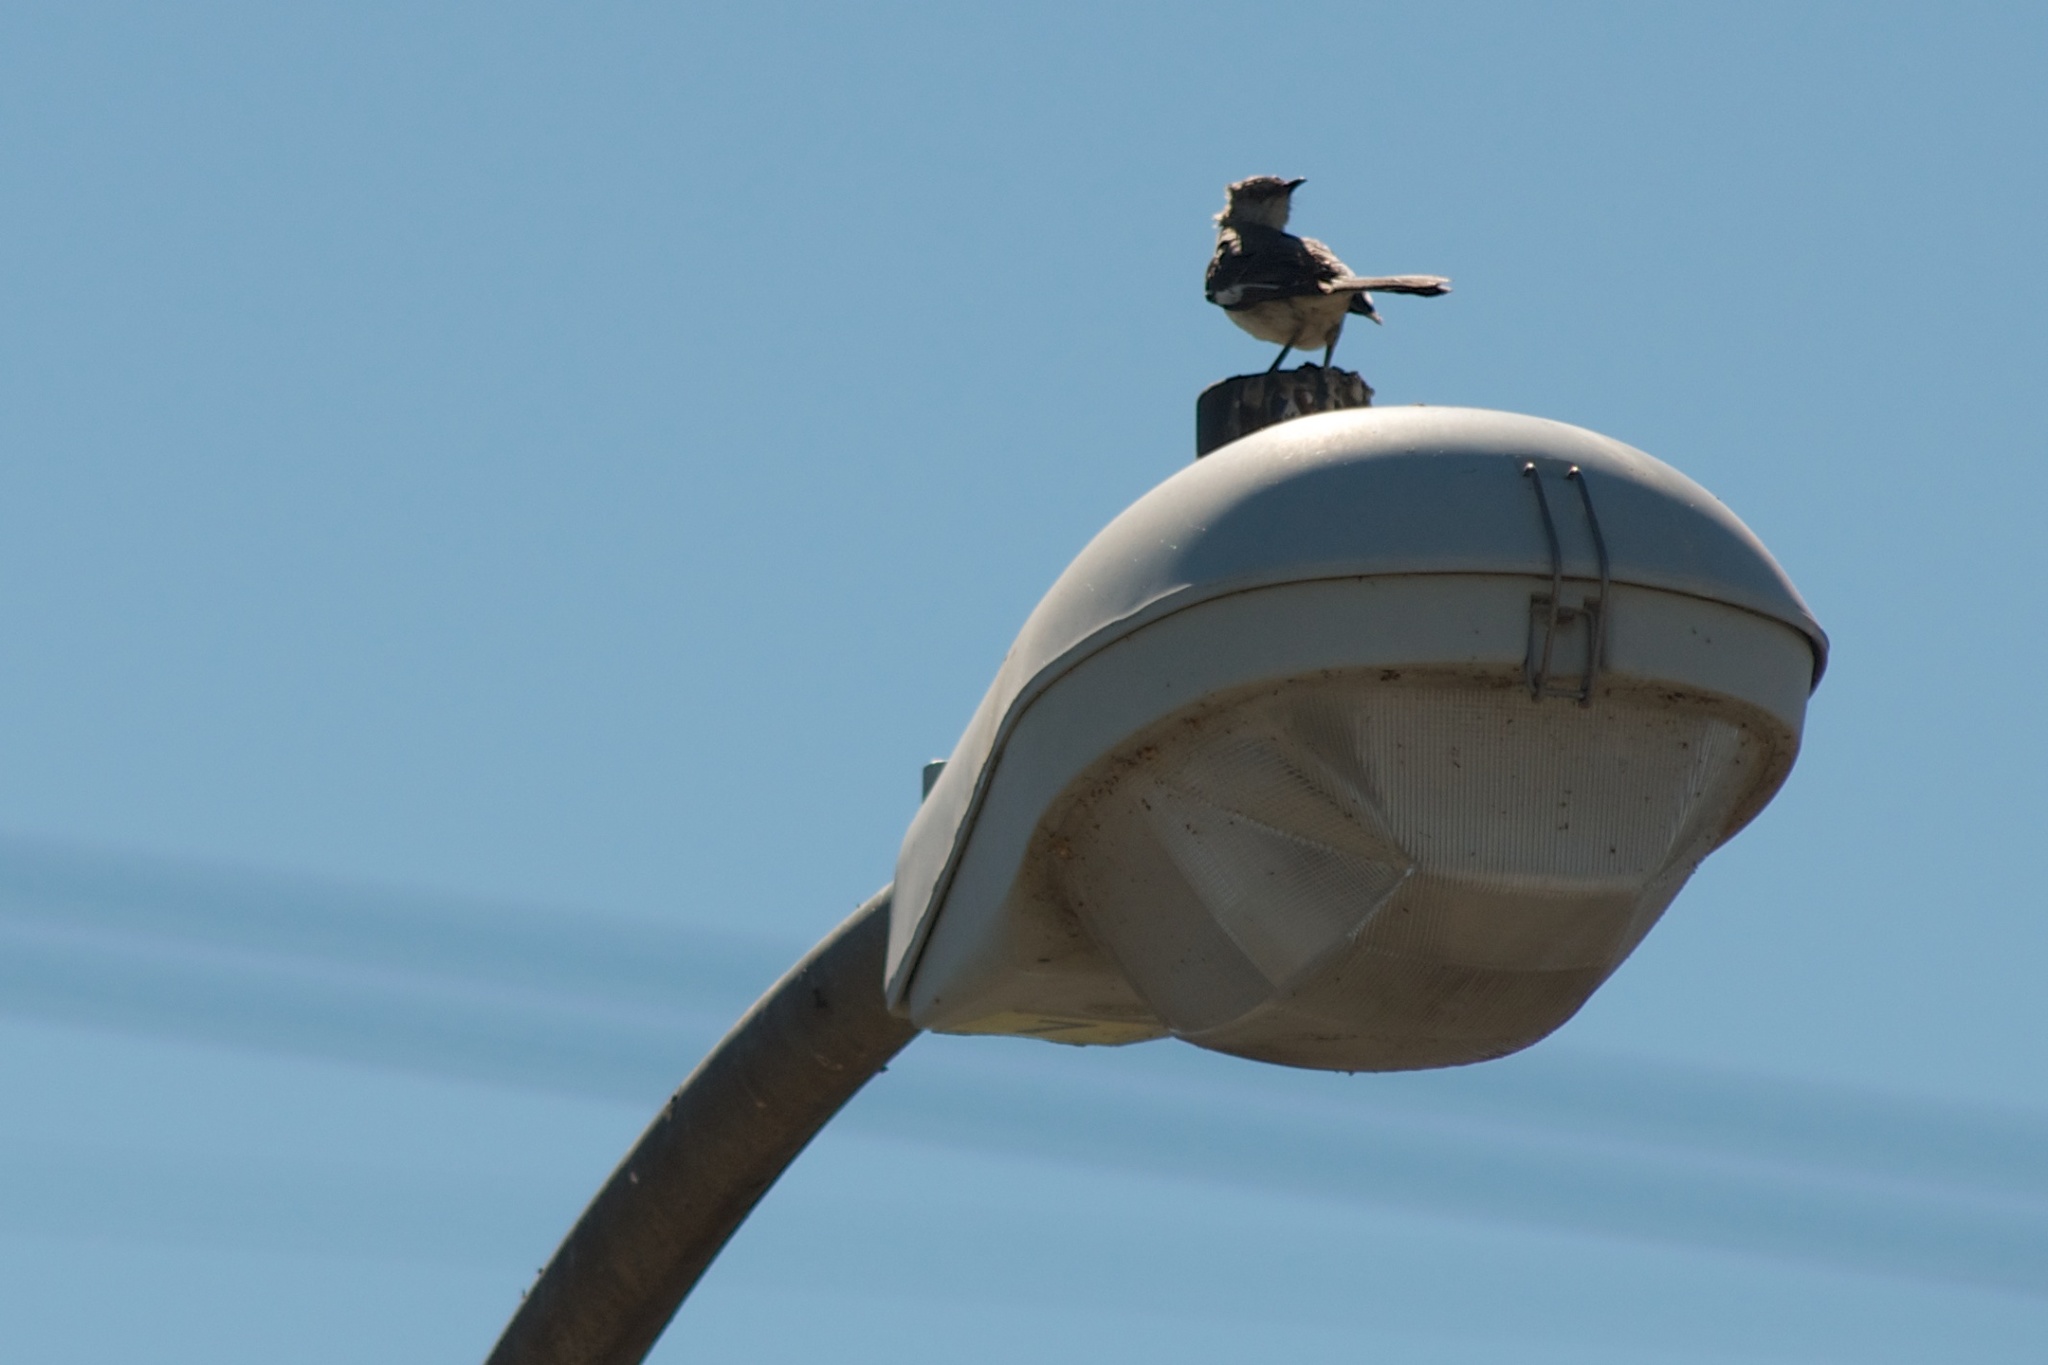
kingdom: Animalia
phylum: Chordata
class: Aves
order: Passeriformes
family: Mimidae
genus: Mimus
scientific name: Mimus polyglottos
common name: Northern mockingbird
